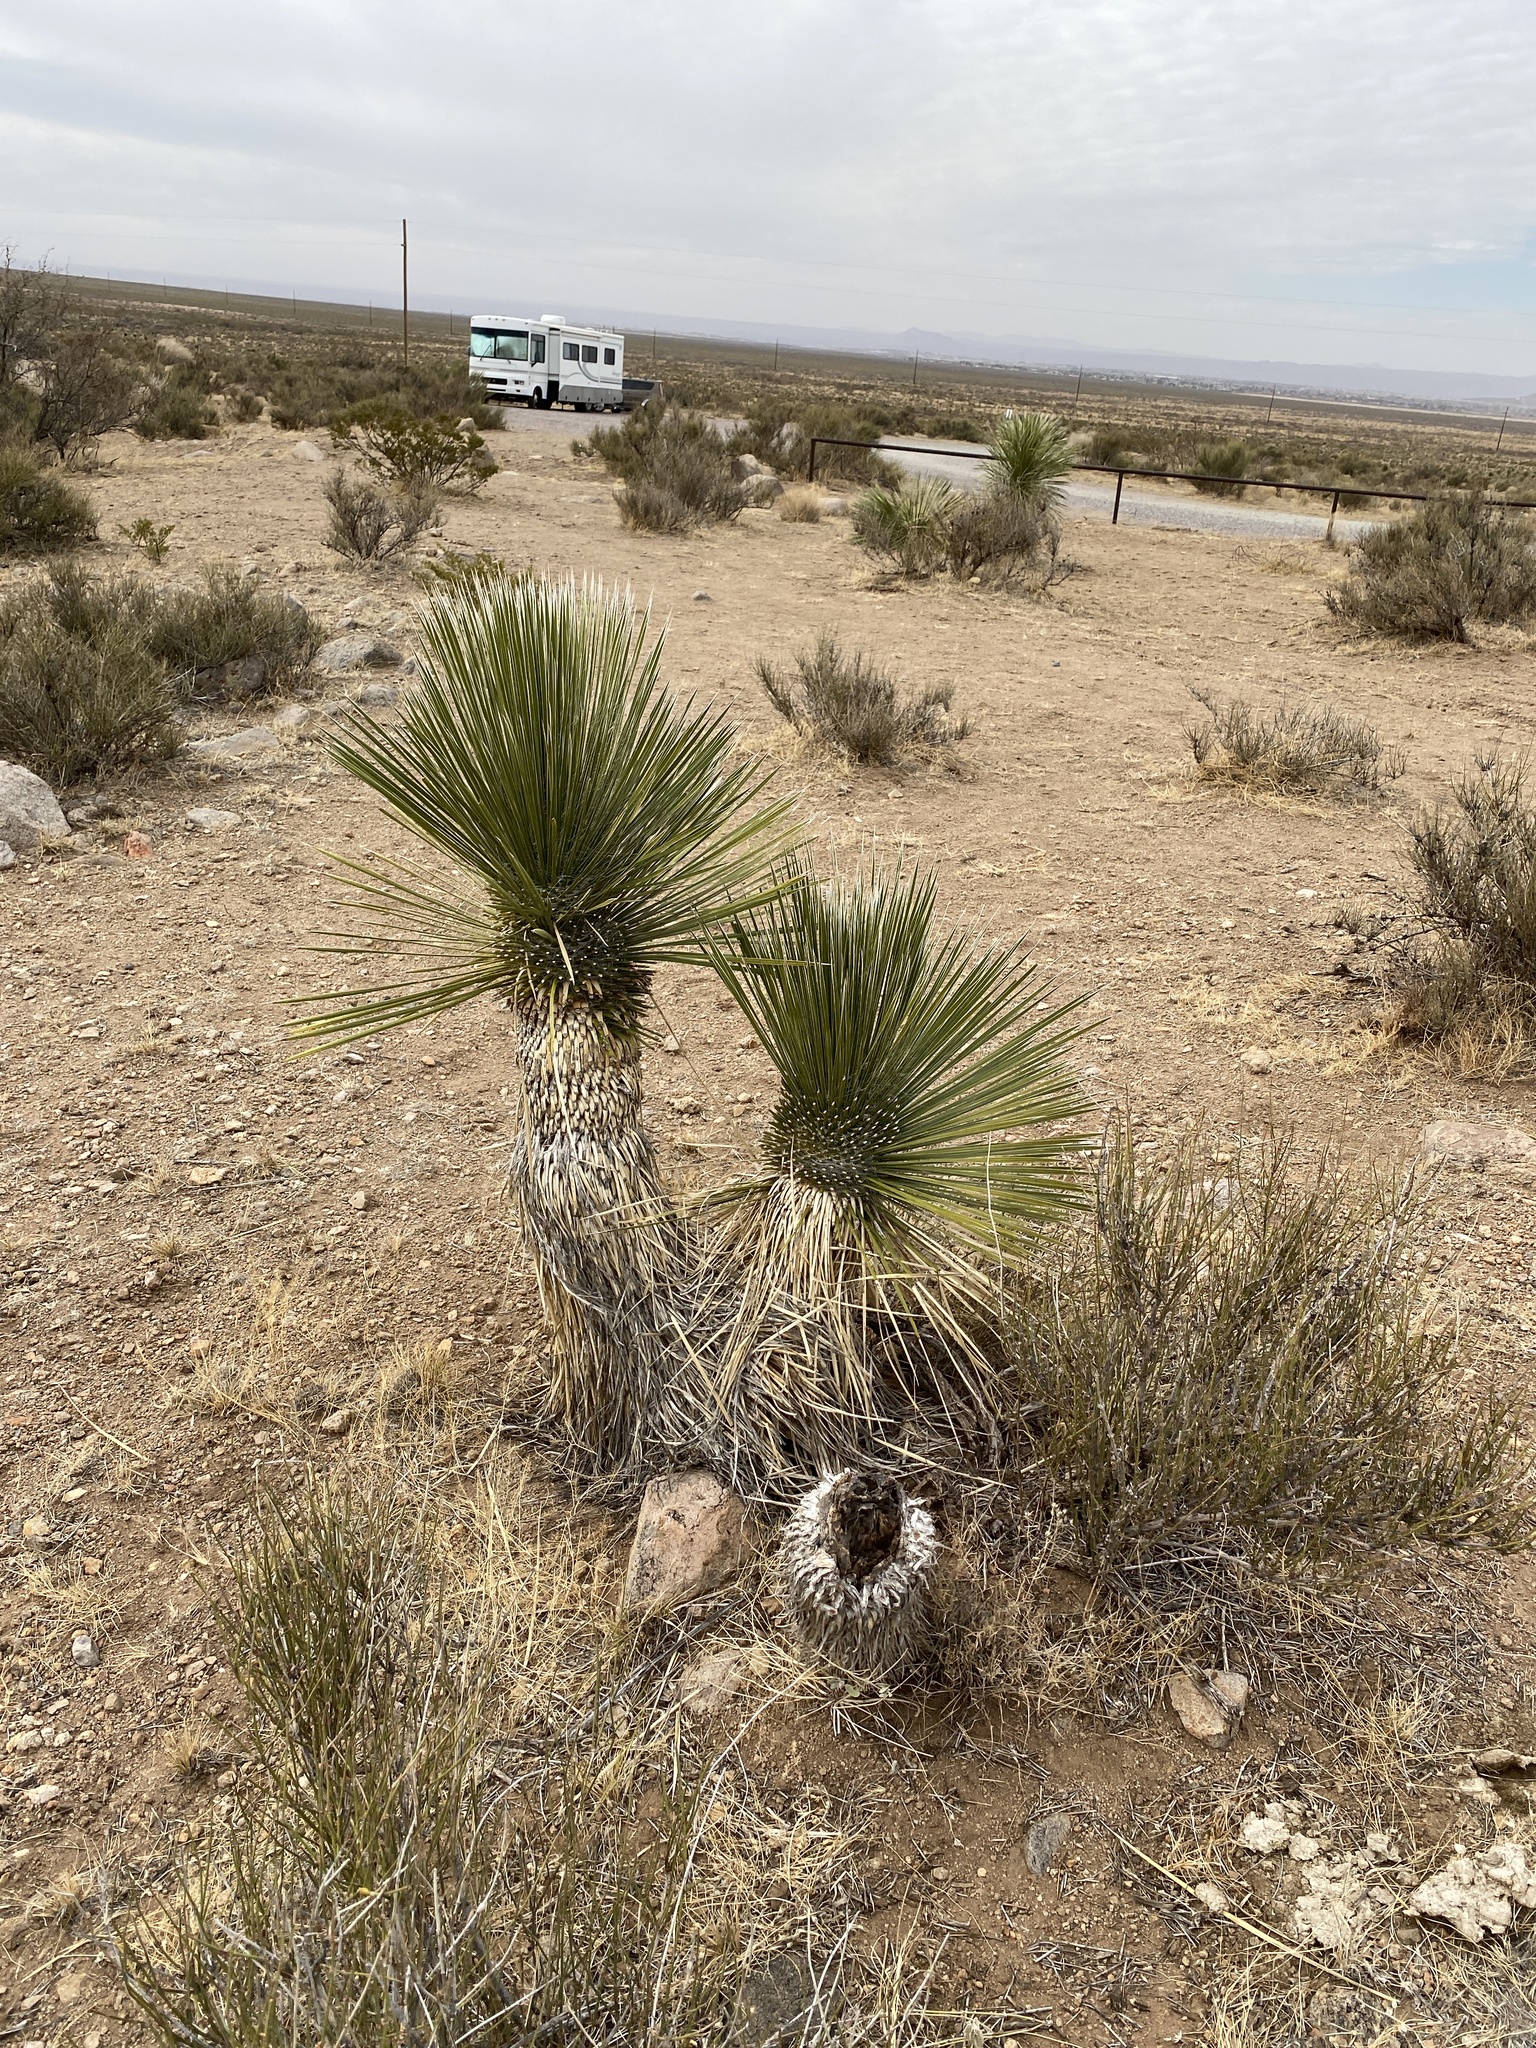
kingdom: Plantae
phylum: Tracheophyta
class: Liliopsida
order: Asparagales
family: Asparagaceae
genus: Yucca
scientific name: Yucca elata
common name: Palmella
